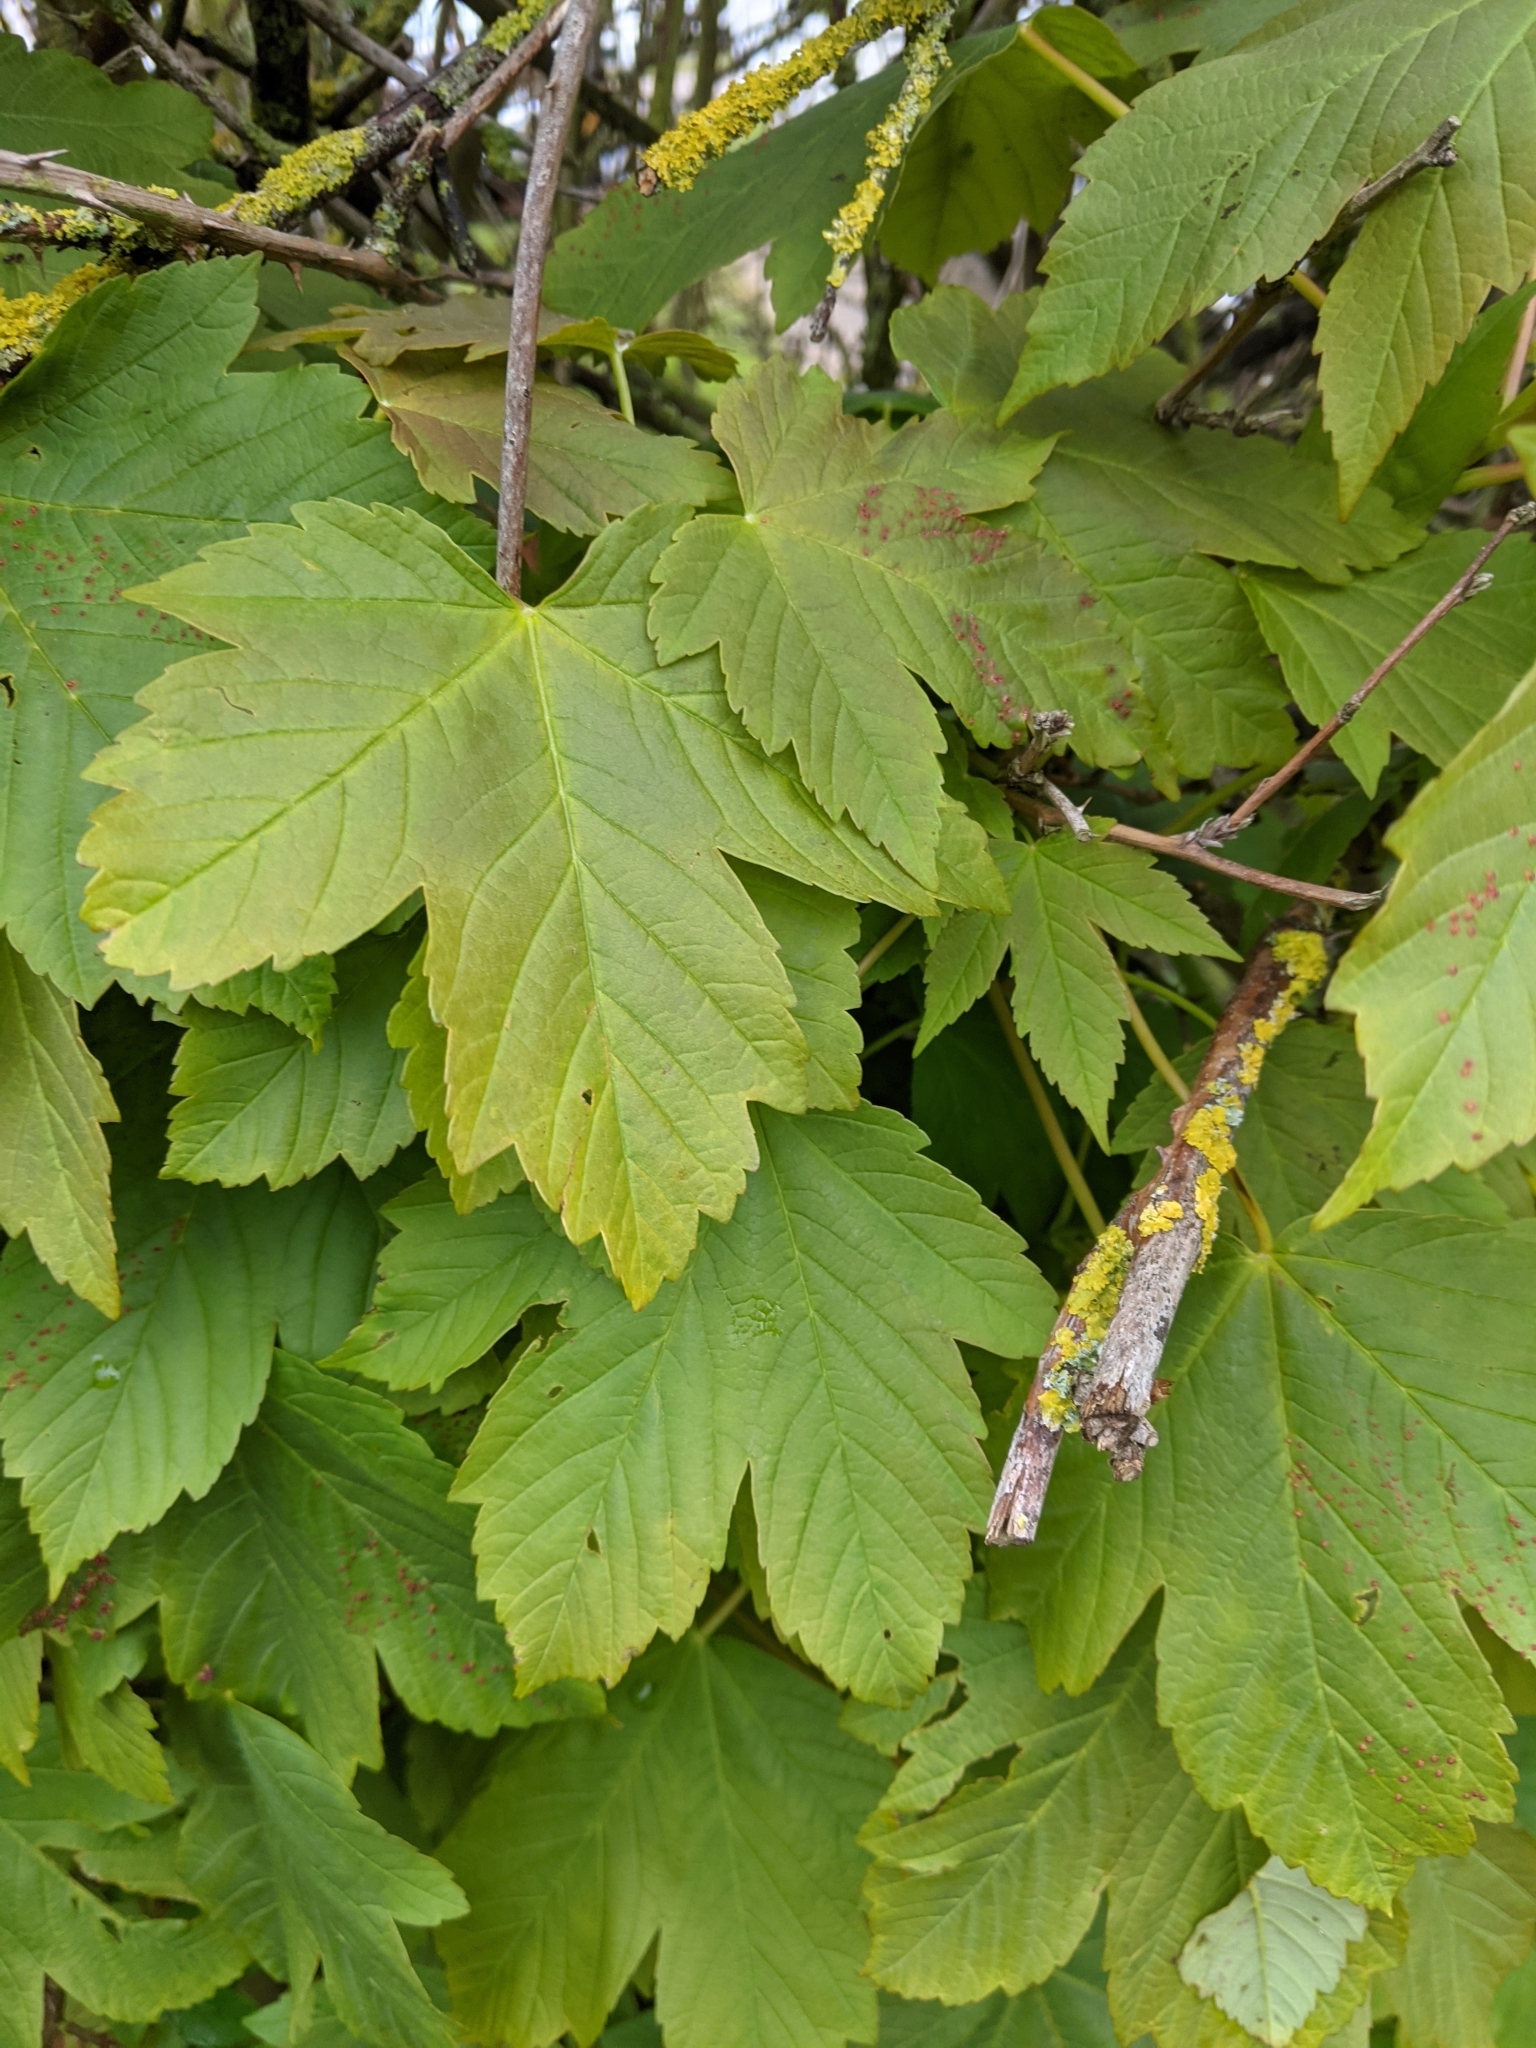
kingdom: Plantae
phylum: Tracheophyta
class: Magnoliopsida
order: Sapindales
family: Sapindaceae
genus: Acer
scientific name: Acer pseudoplatanus
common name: Sycamore
